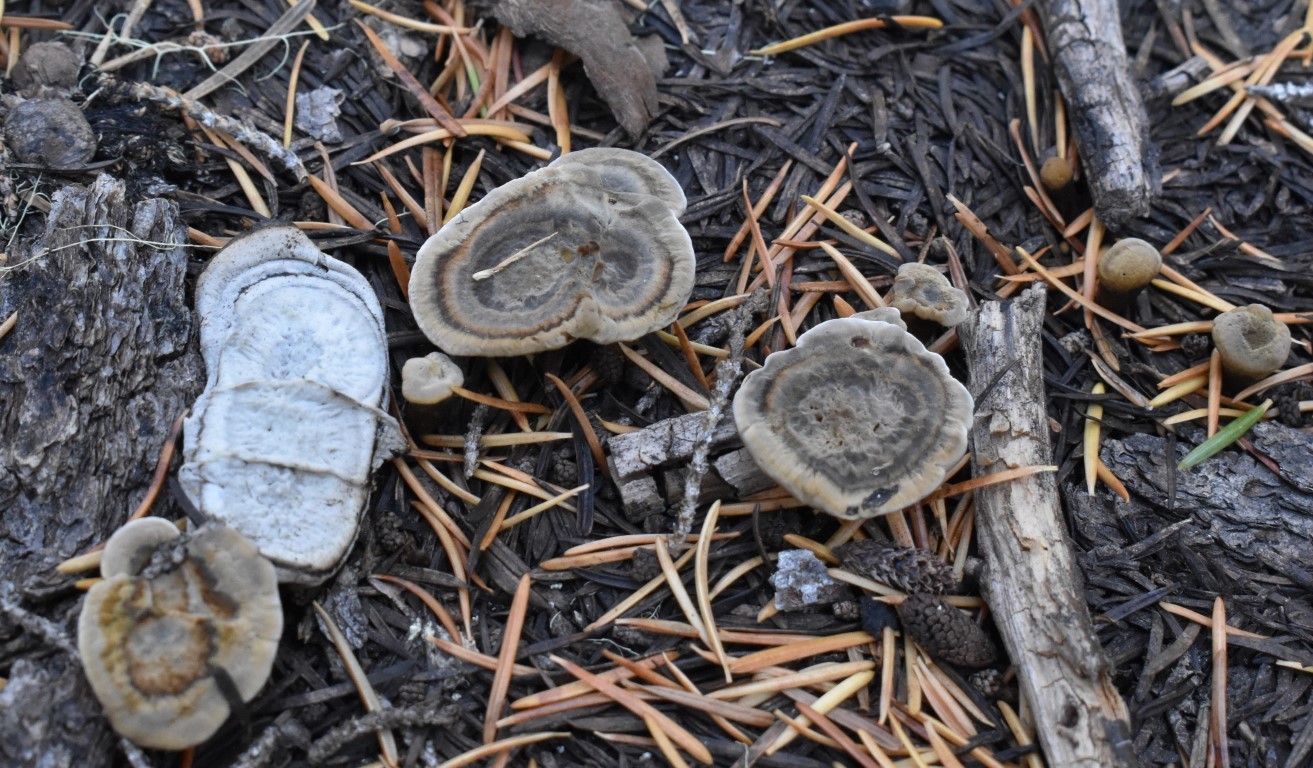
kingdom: Fungi
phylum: Basidiomycota
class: Agaricomycetes
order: Polyporales
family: Laetiporaceae
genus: Phaeolus
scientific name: Phaeolus schweinitzii
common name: Dyer's mazegill
